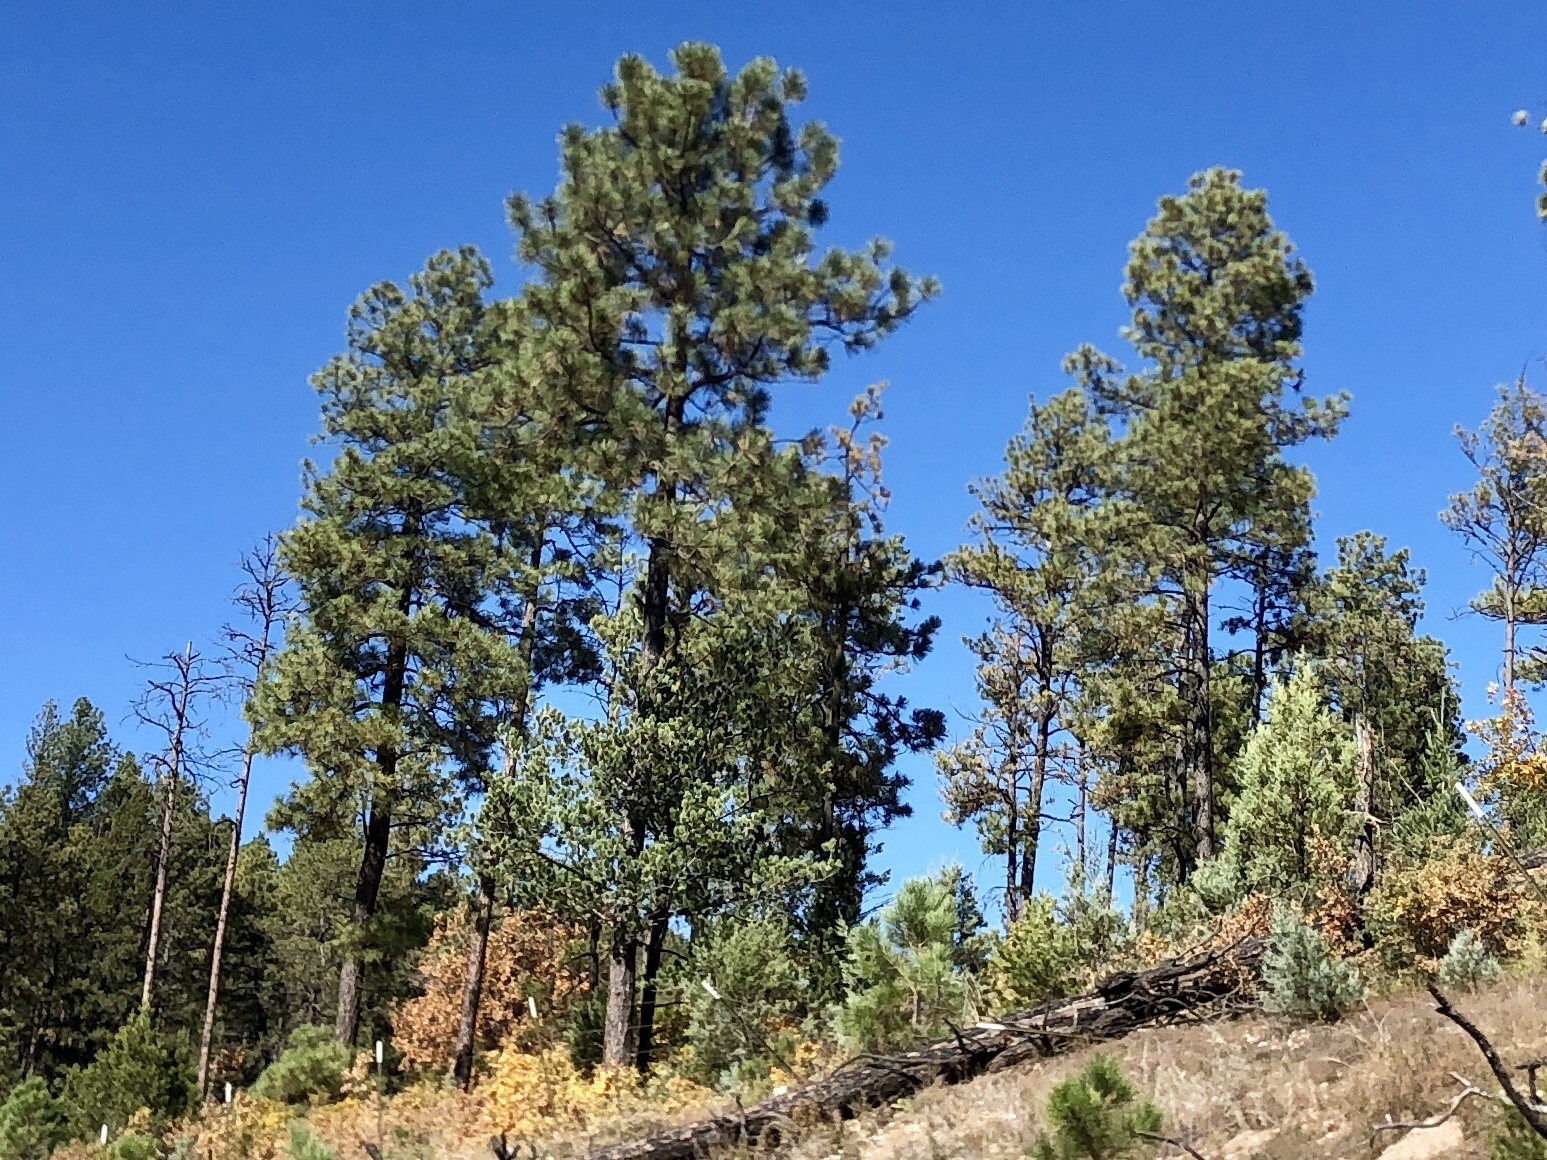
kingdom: Plantae
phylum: Tracheophyta
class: Pinopsida
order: Pinales
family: Pinaceae
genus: Pinus
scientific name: Pinus ponderosa
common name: Western yellow-pine
